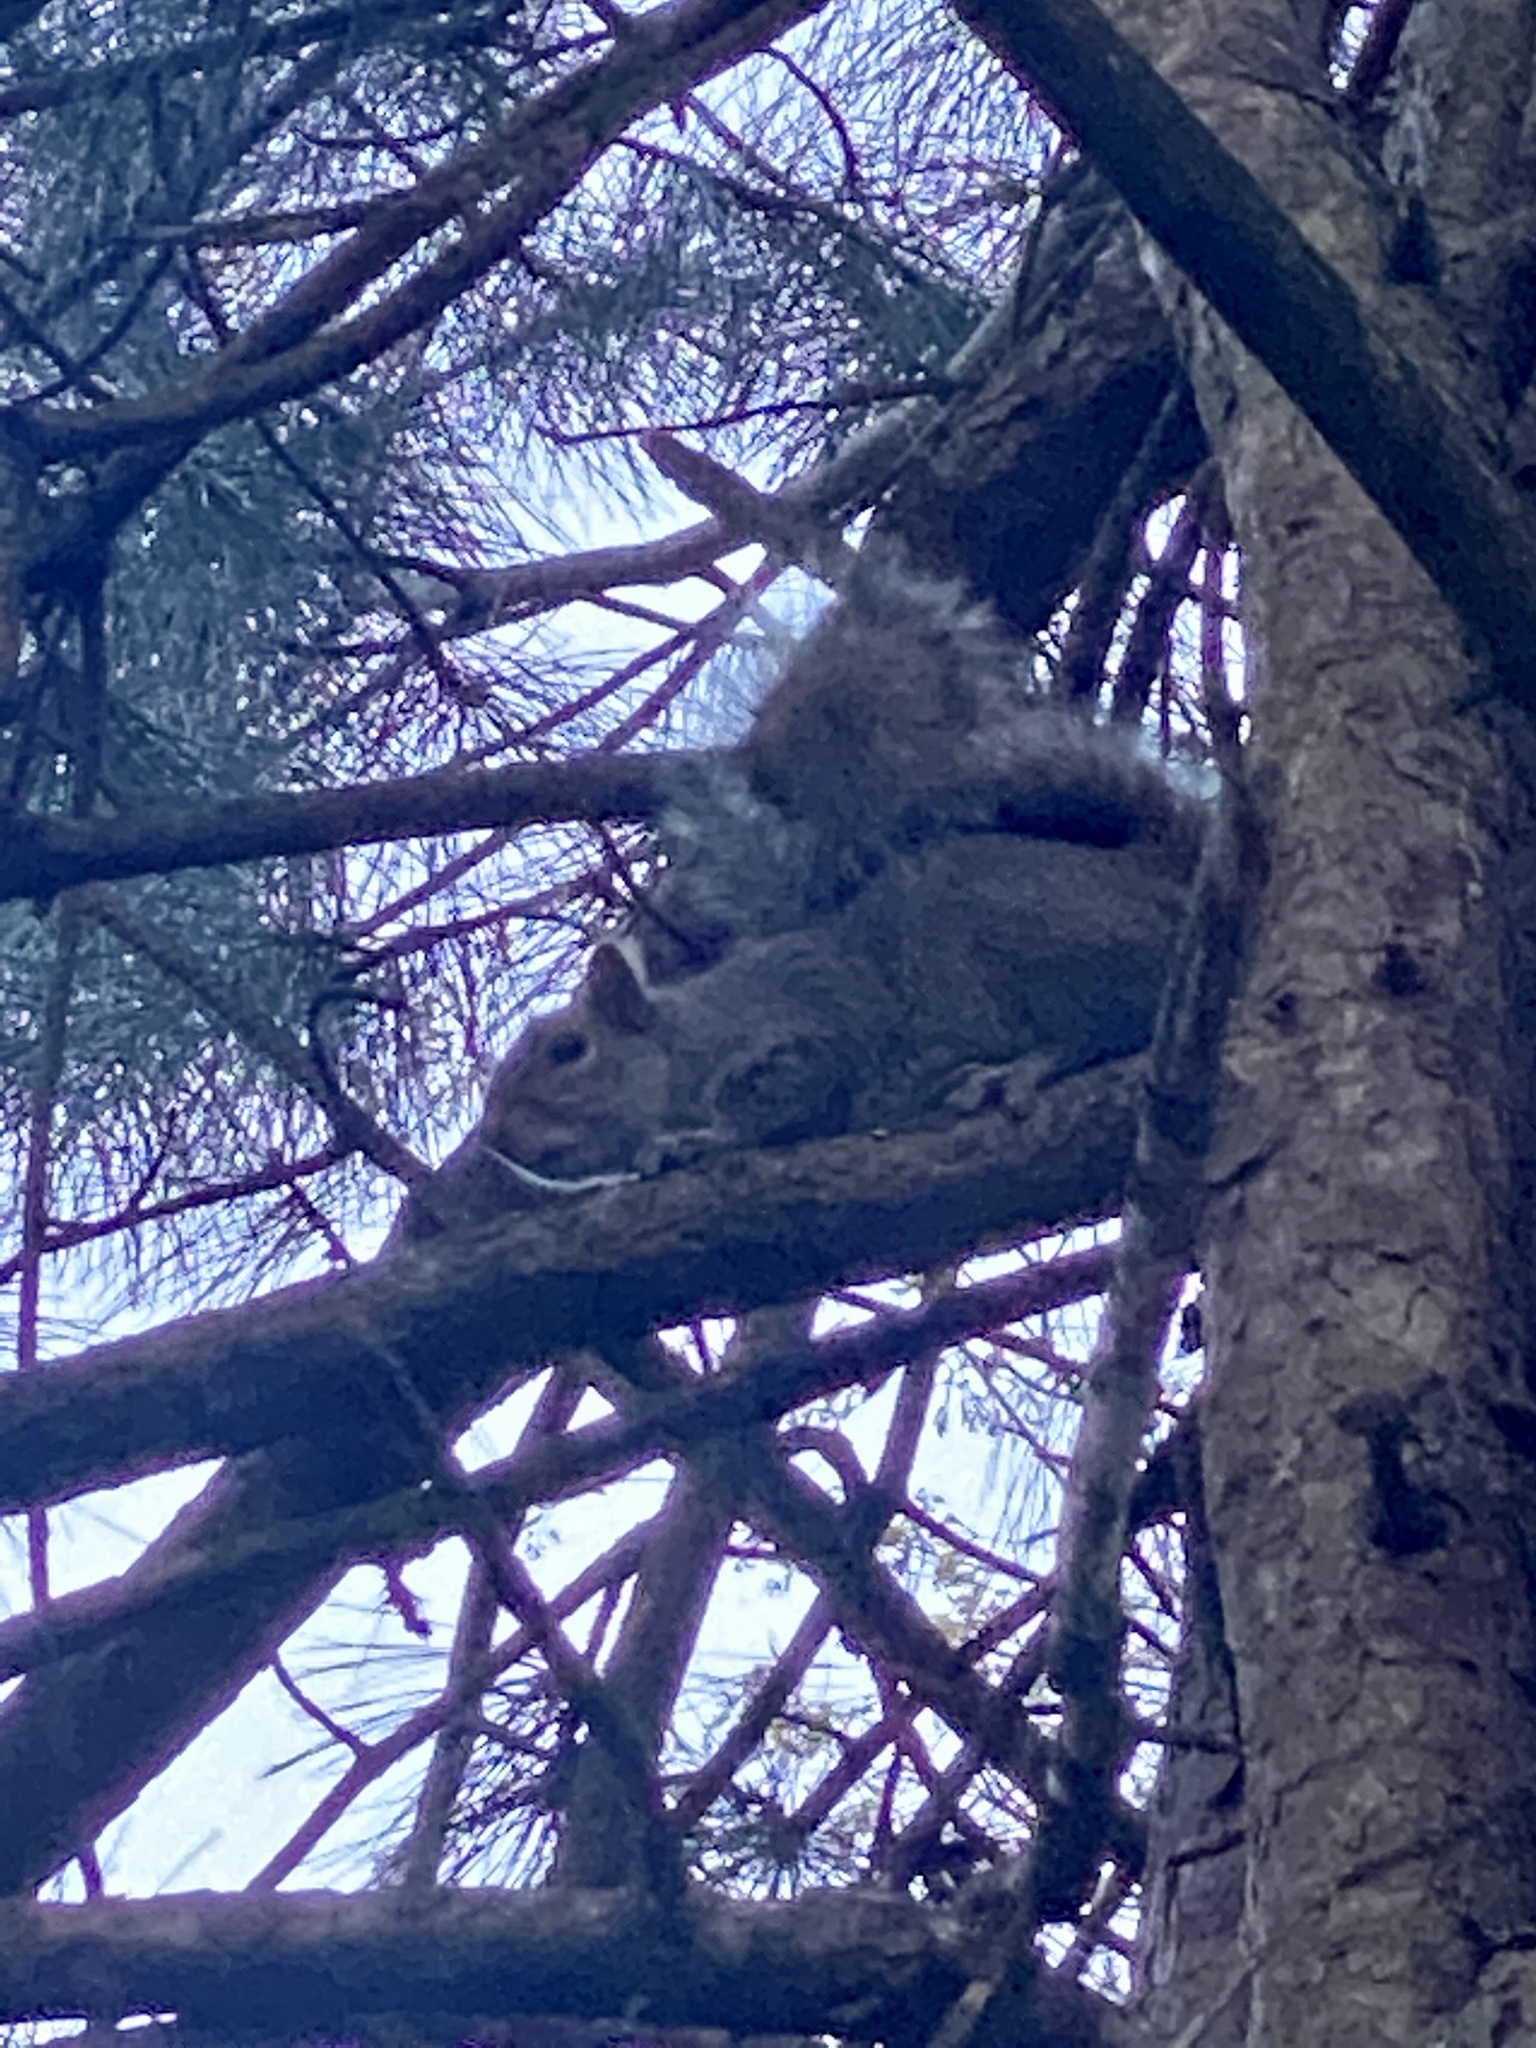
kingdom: Animalia
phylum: Chordata
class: Mammalia
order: Rodentia
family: Sciuridae
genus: Sciurus
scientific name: Sciurus carolinensis
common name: Eastern gray squirrel
